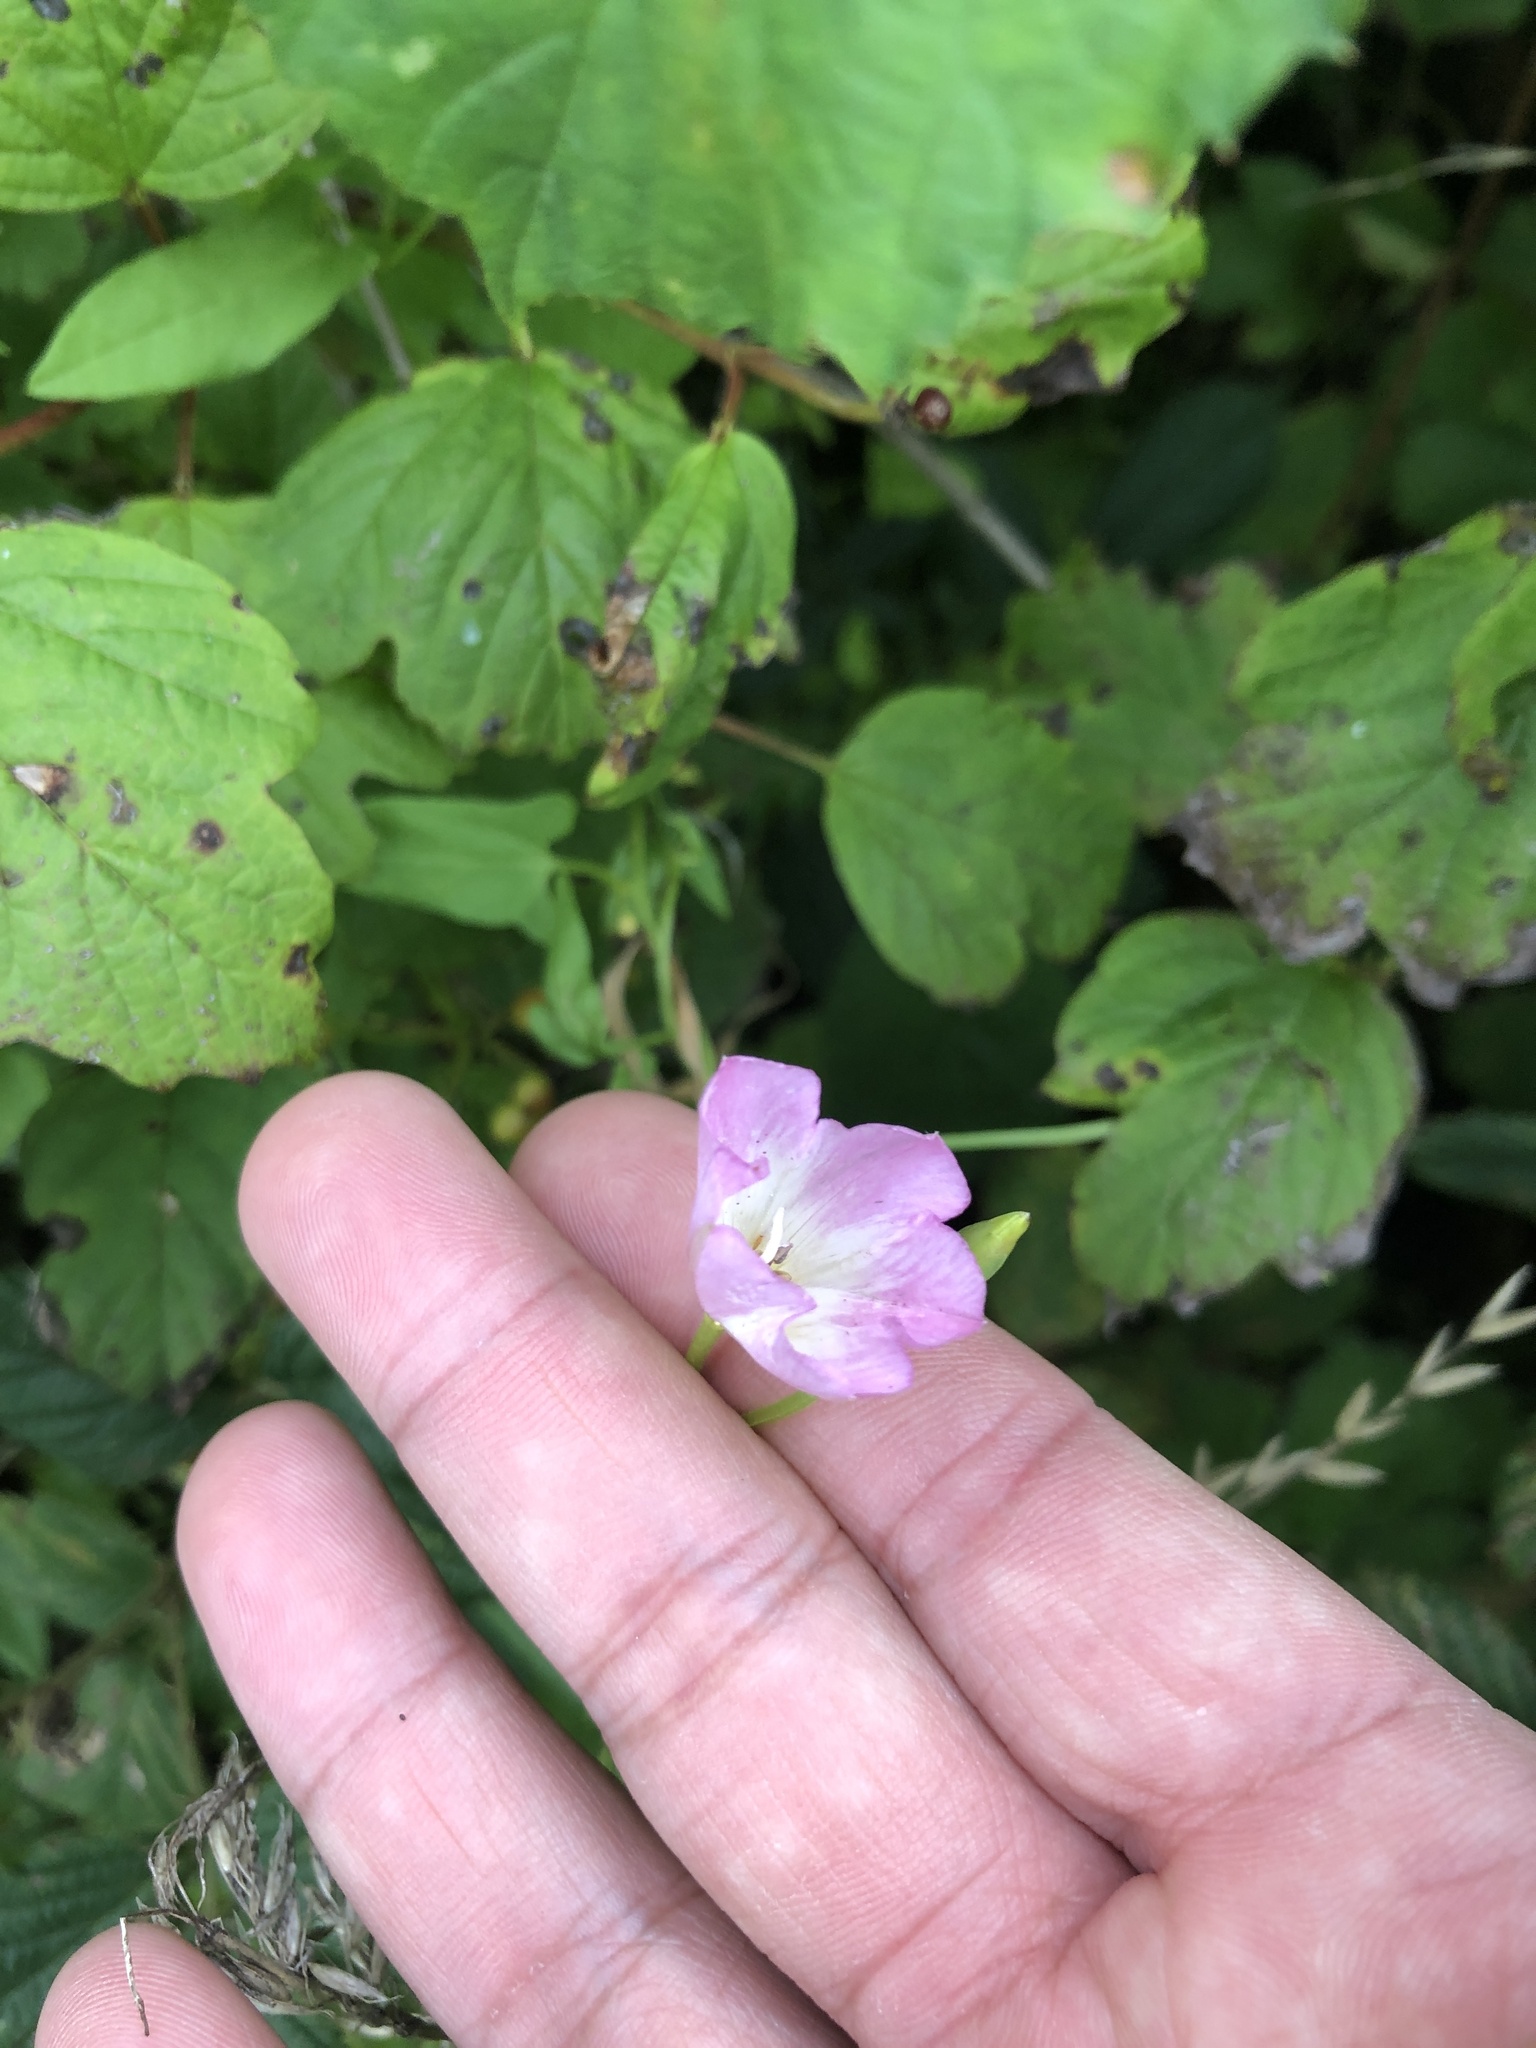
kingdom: Plantae
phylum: Tracheophyta
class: Magnoliopsida
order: Solanales
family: Convolvulaceae
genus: Convolvulus
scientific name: Convolvulus arvensis
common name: Field bindweed
